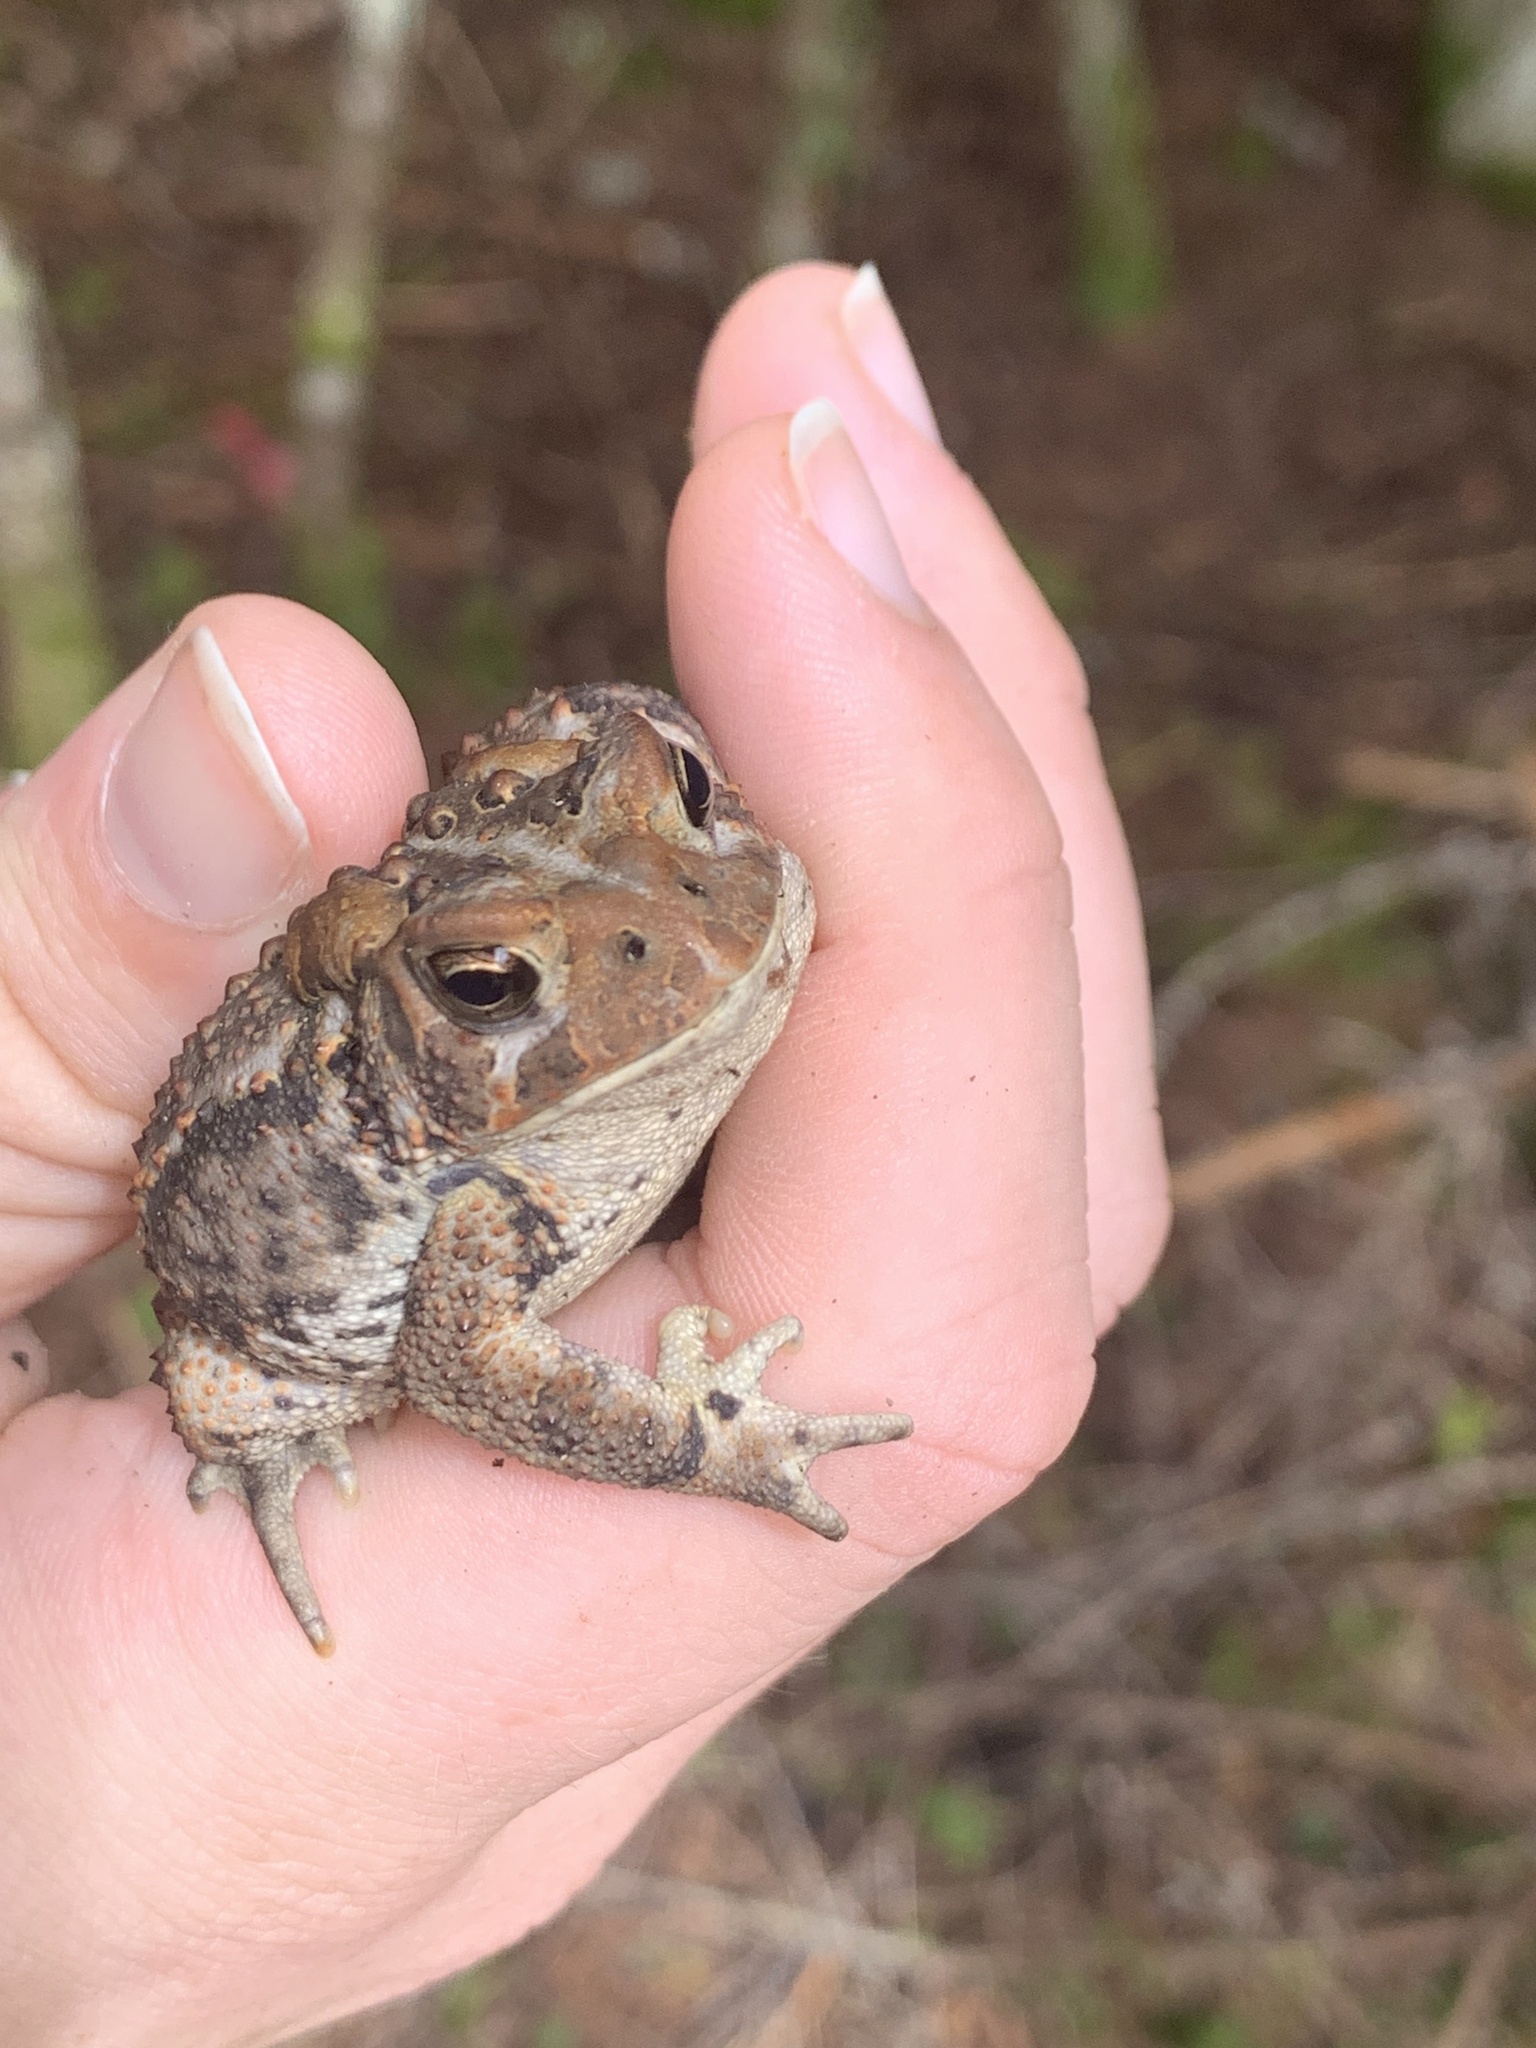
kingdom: Animalia
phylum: Chordata
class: Amphibia
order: Anura
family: Bufonidae
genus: Anaxyrus
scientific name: Anaxyrus americanus
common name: American toad
